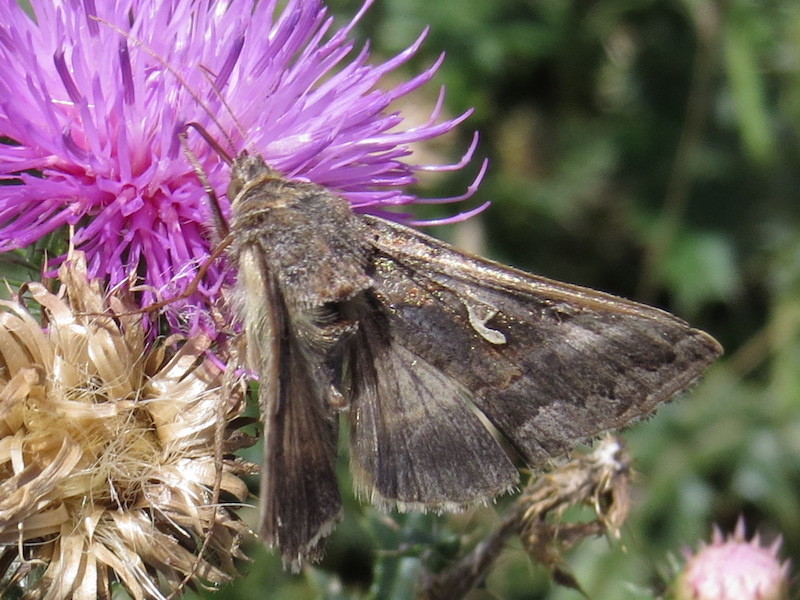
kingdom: Animalia
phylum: Arthropoda
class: Insecta
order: Lepidoptera
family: Noctuidae
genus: Autographa
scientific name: Autographa gamma
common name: Silver y
